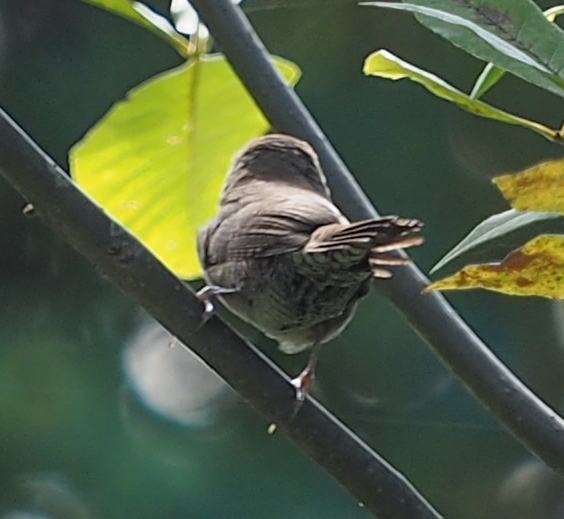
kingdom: Animalia
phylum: Chordata
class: Aves
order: Passeriformes
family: Troglodytidae
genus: Troglodytes
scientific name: Troglodytes aedon
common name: House wren
